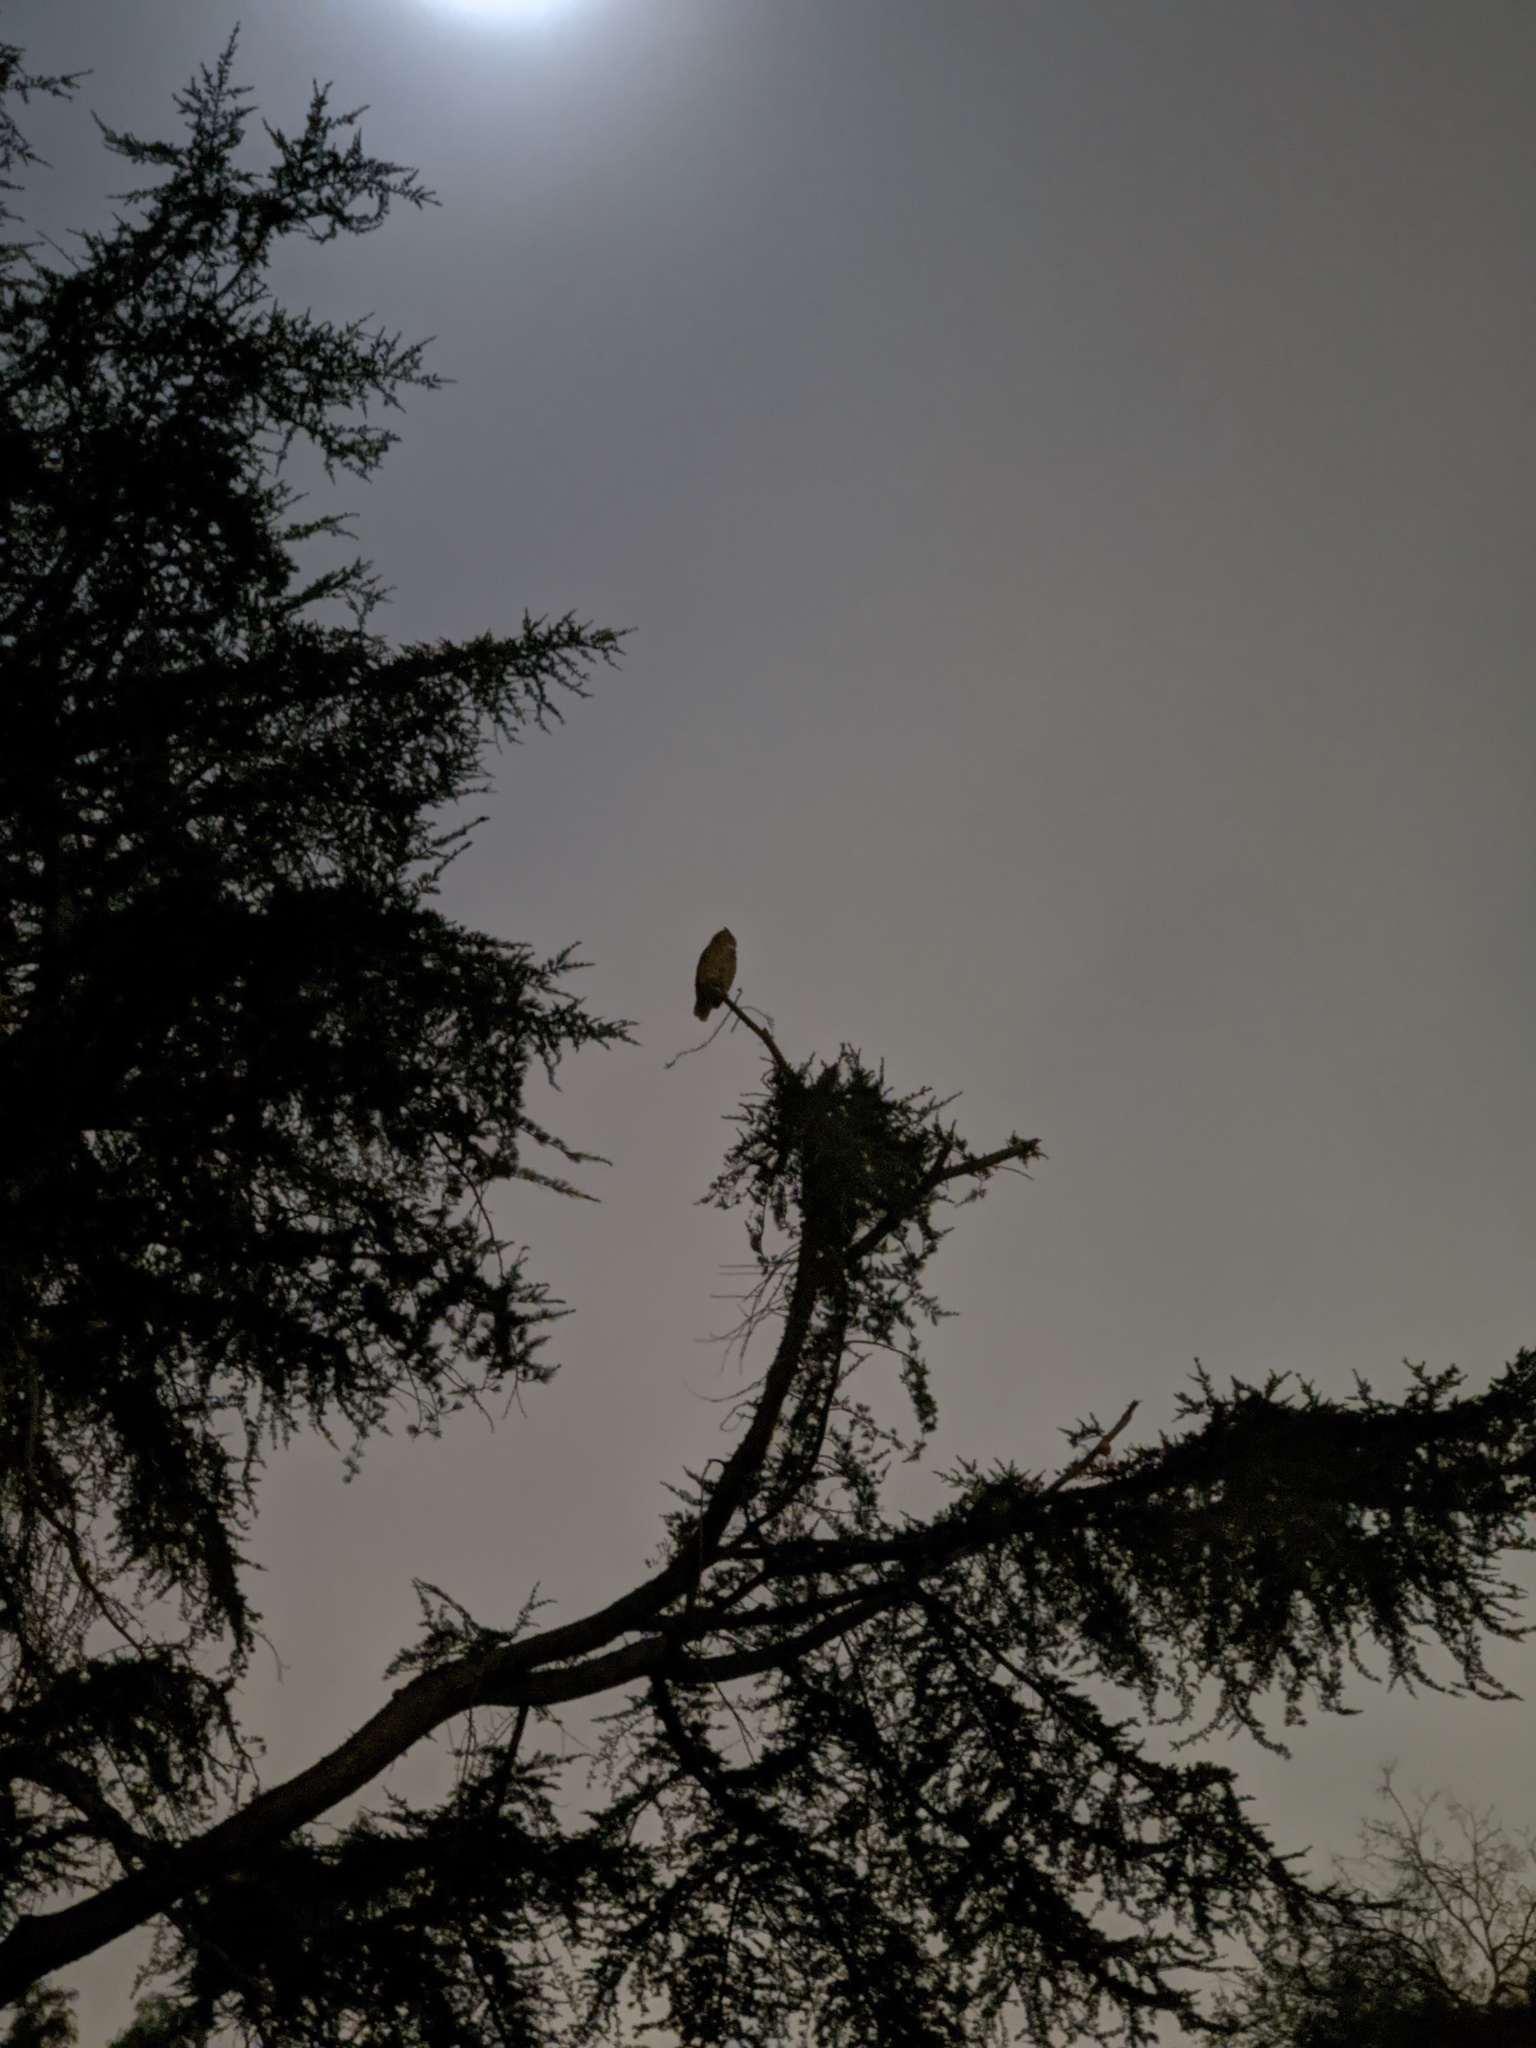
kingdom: Animalia
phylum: Chordata
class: Aves
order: Strigiformes
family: Strigidae
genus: Bubo
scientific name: Bubo virginianus
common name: Great horned owl
